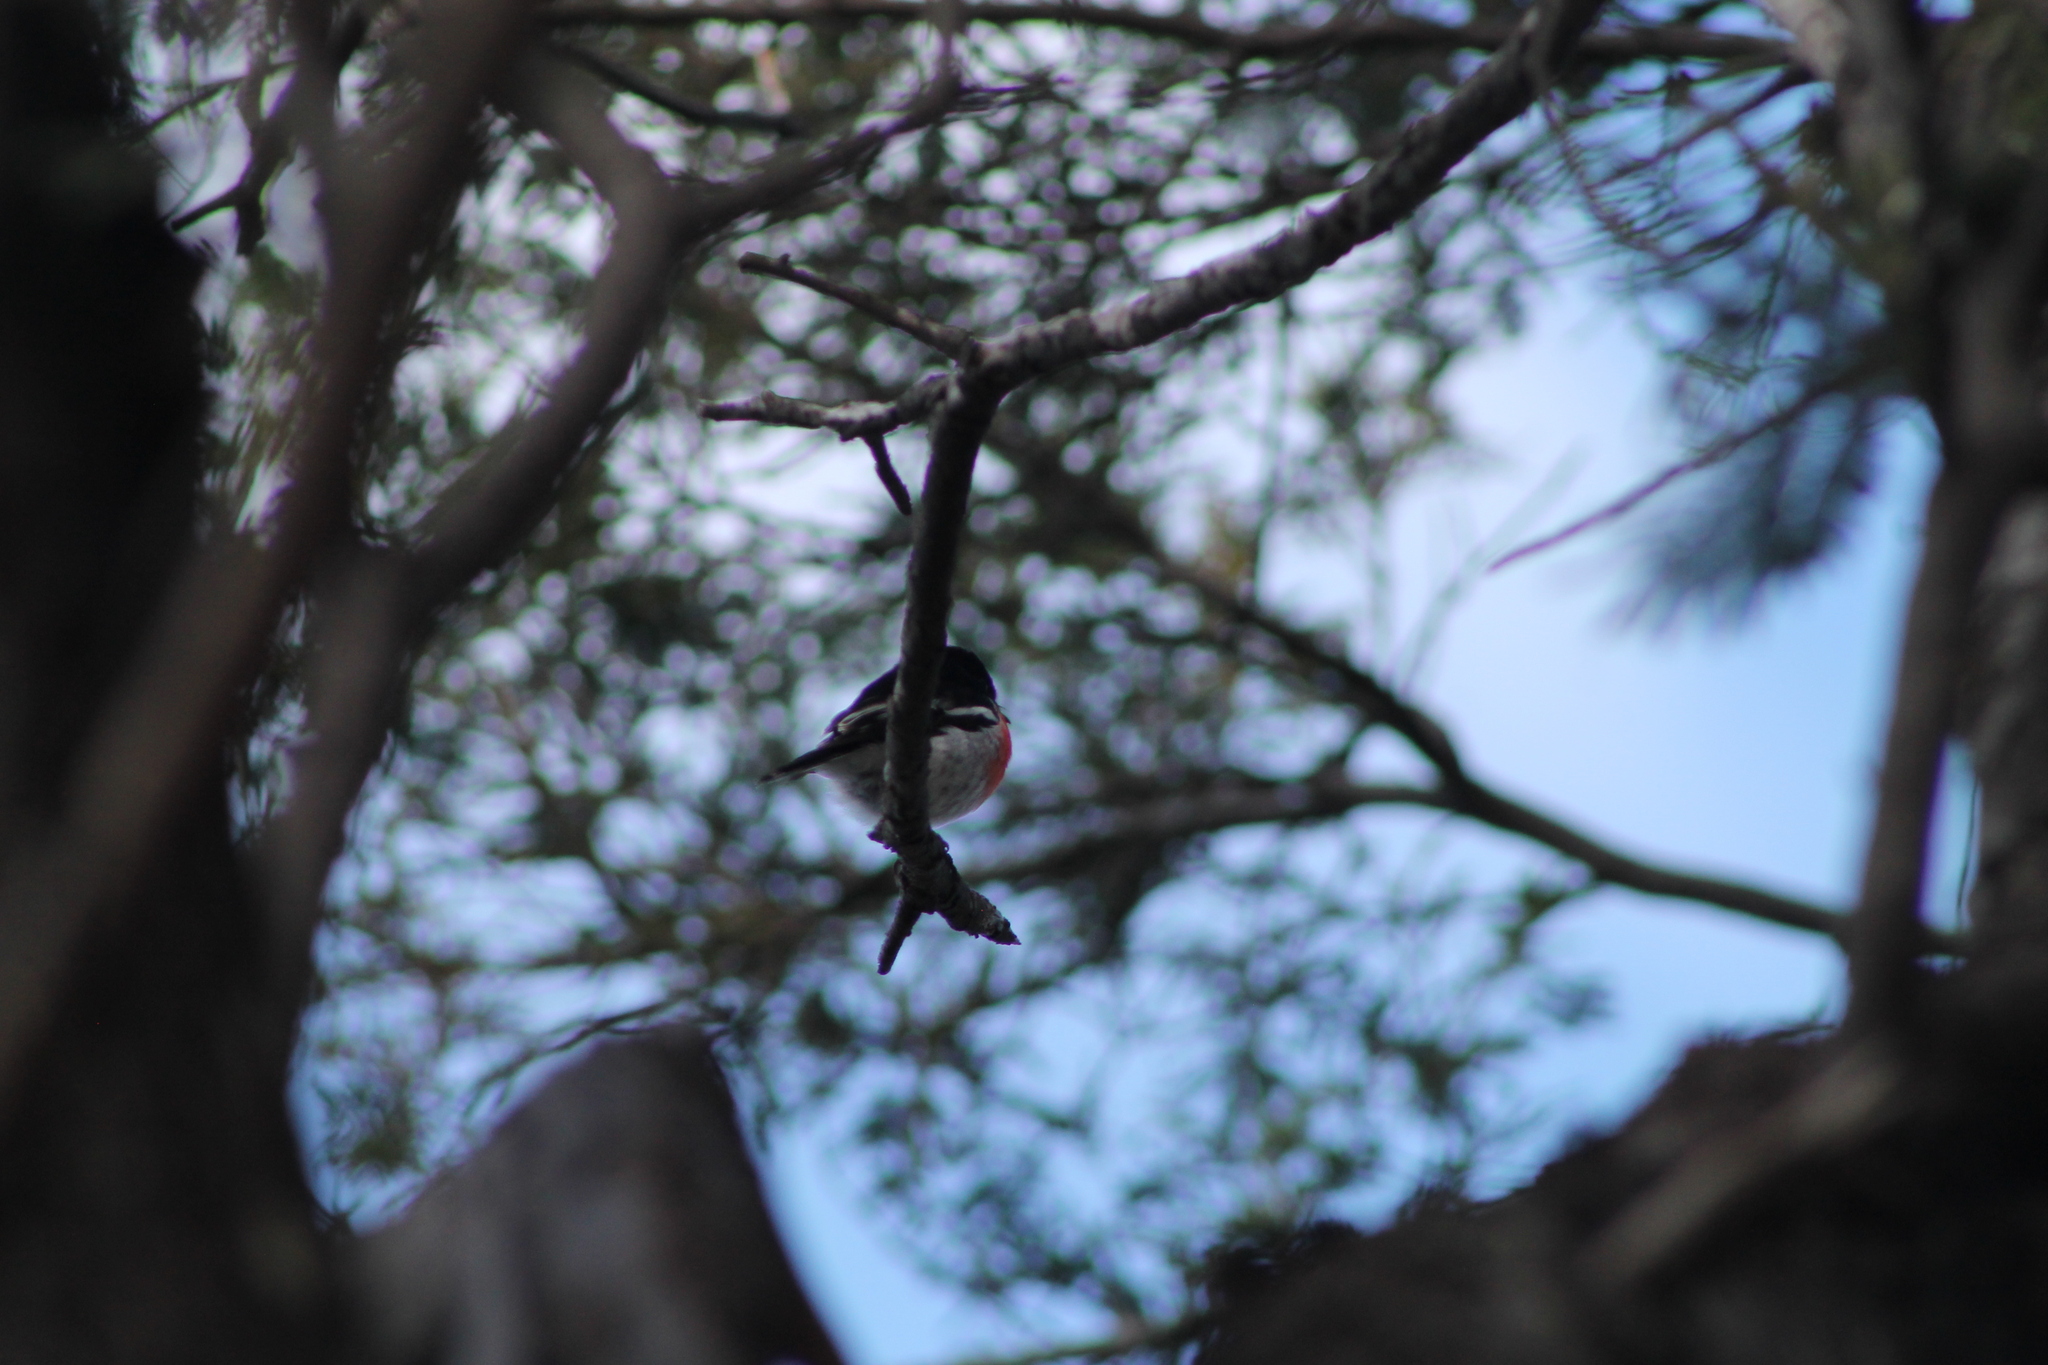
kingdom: Animalia
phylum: Chordata
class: Aves
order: Passeriformes
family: Petroicidae
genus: Petroica
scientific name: Petroica boodang
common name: Scarlet robin
